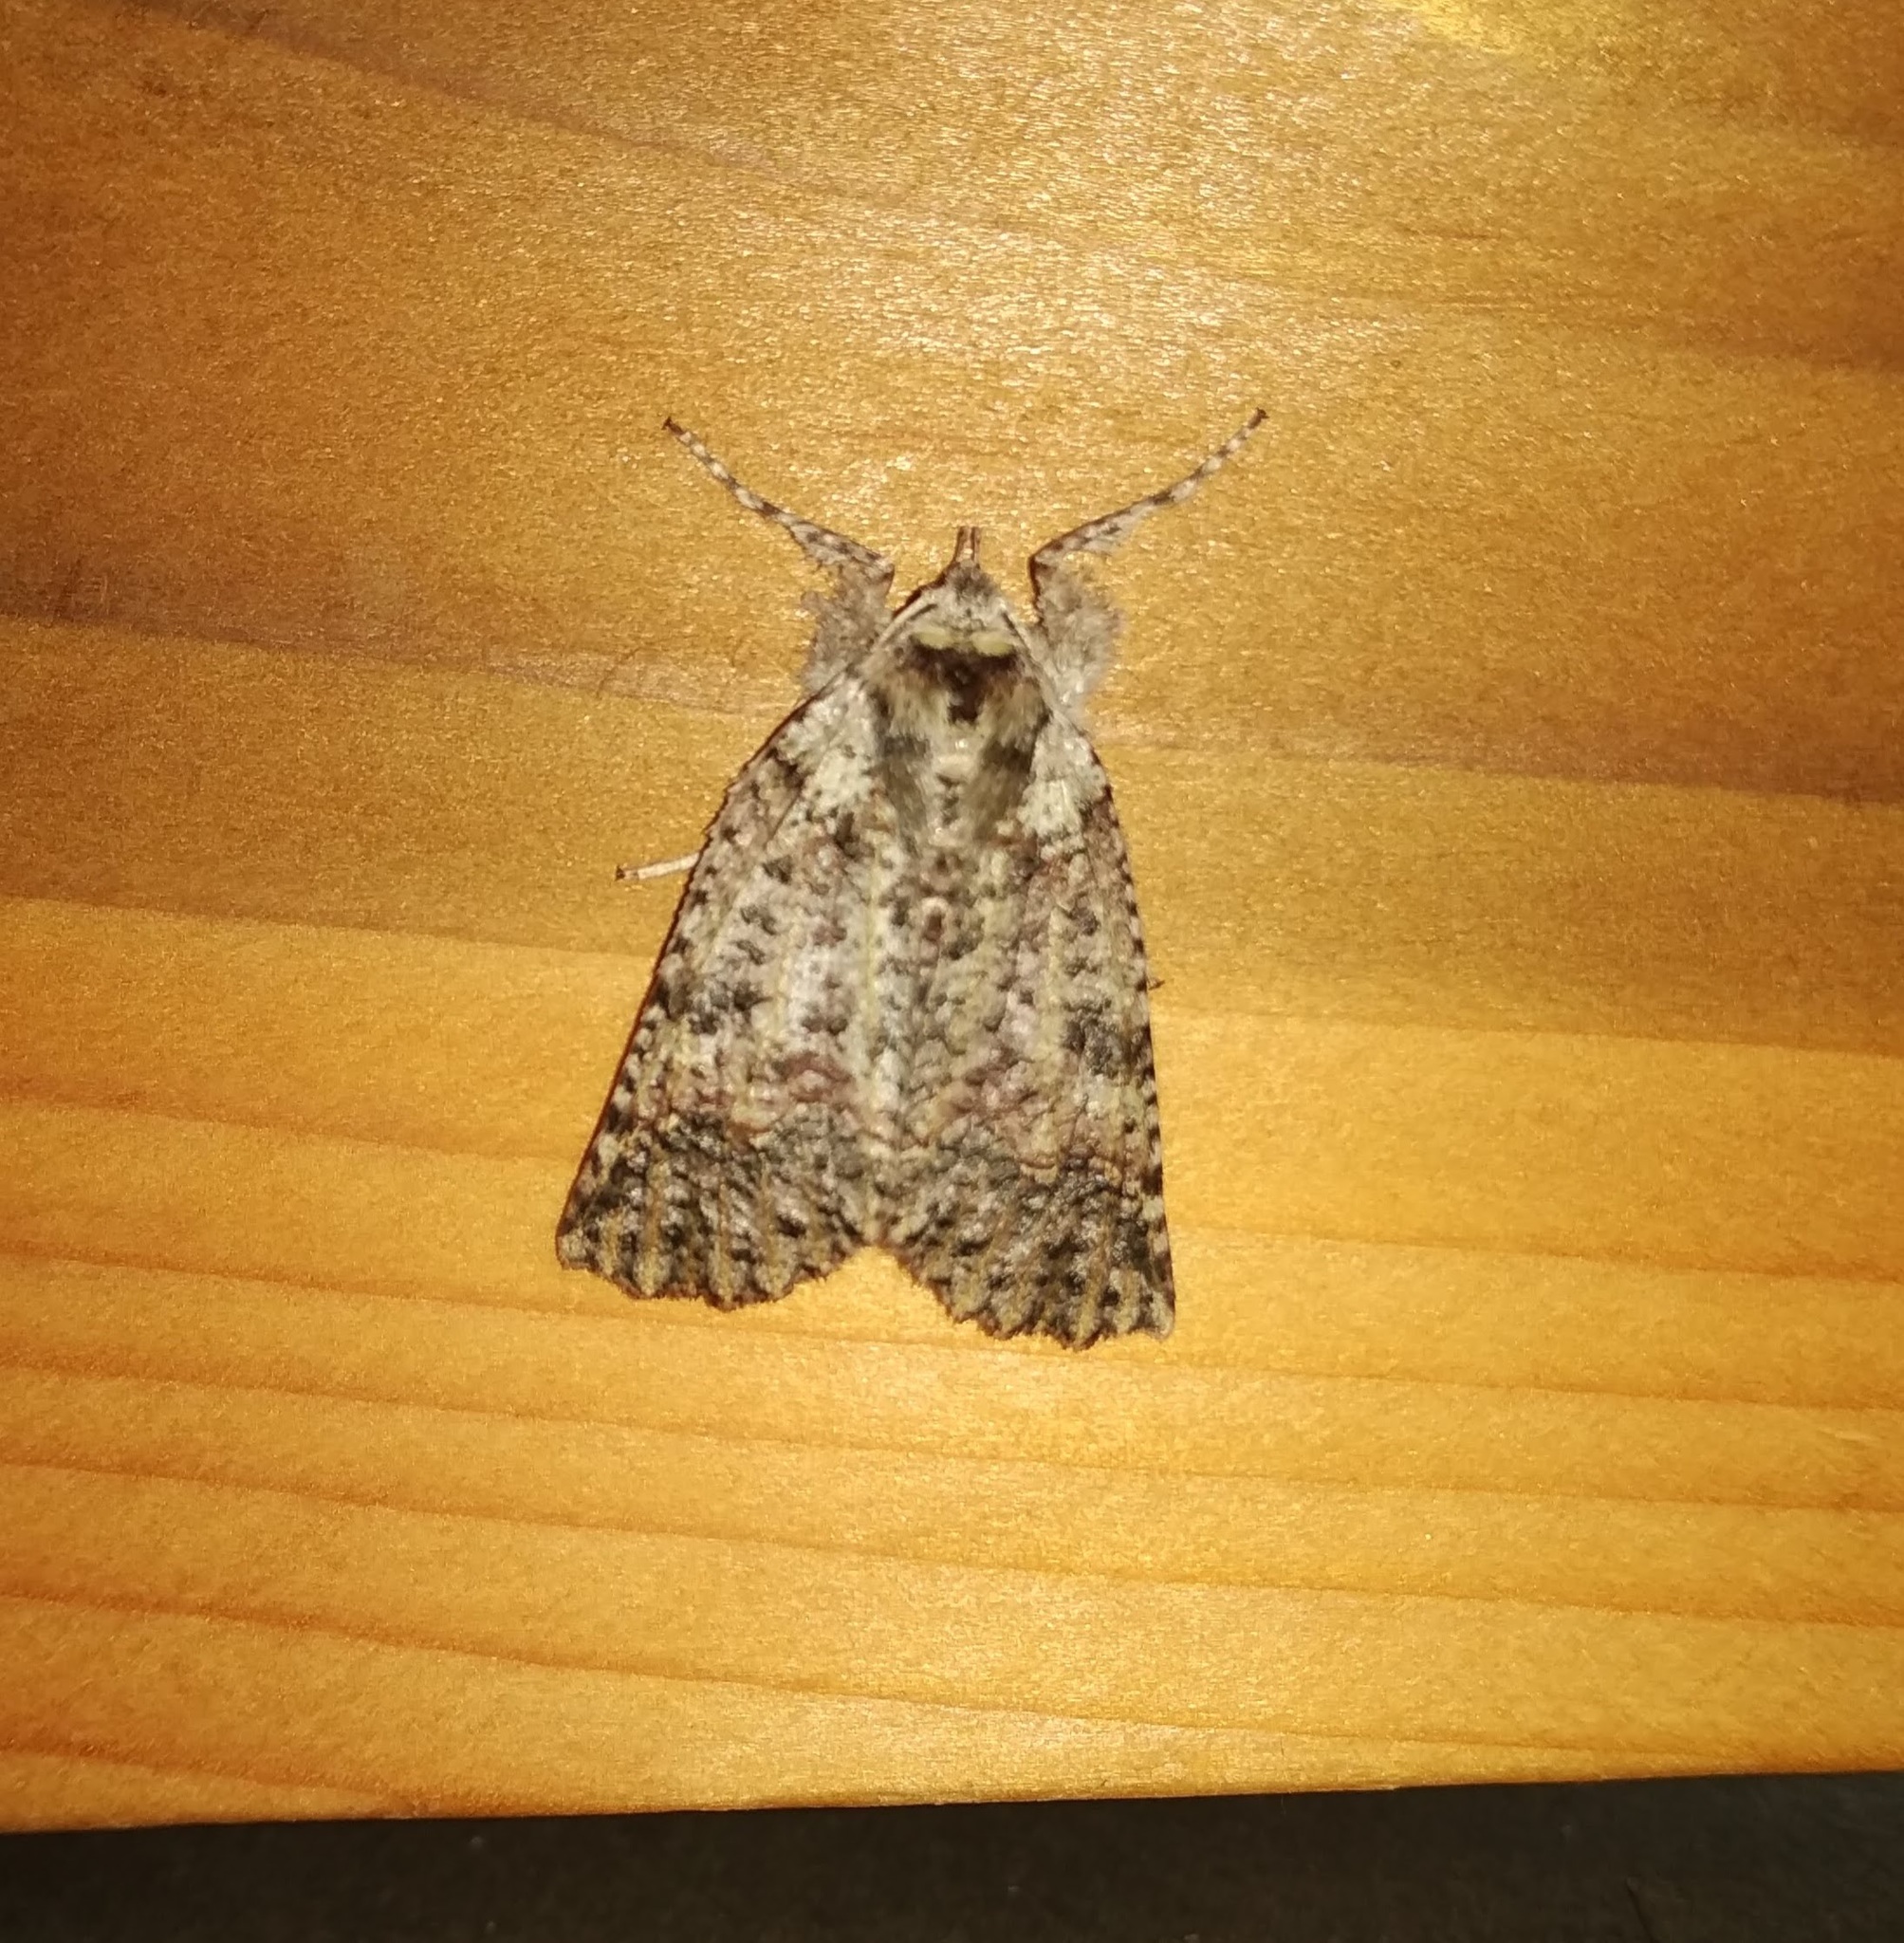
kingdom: Animalia
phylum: Arthropoda
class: Insecta
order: Lepidoptera
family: Geometridae
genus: Declana
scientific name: Declana floccosa
